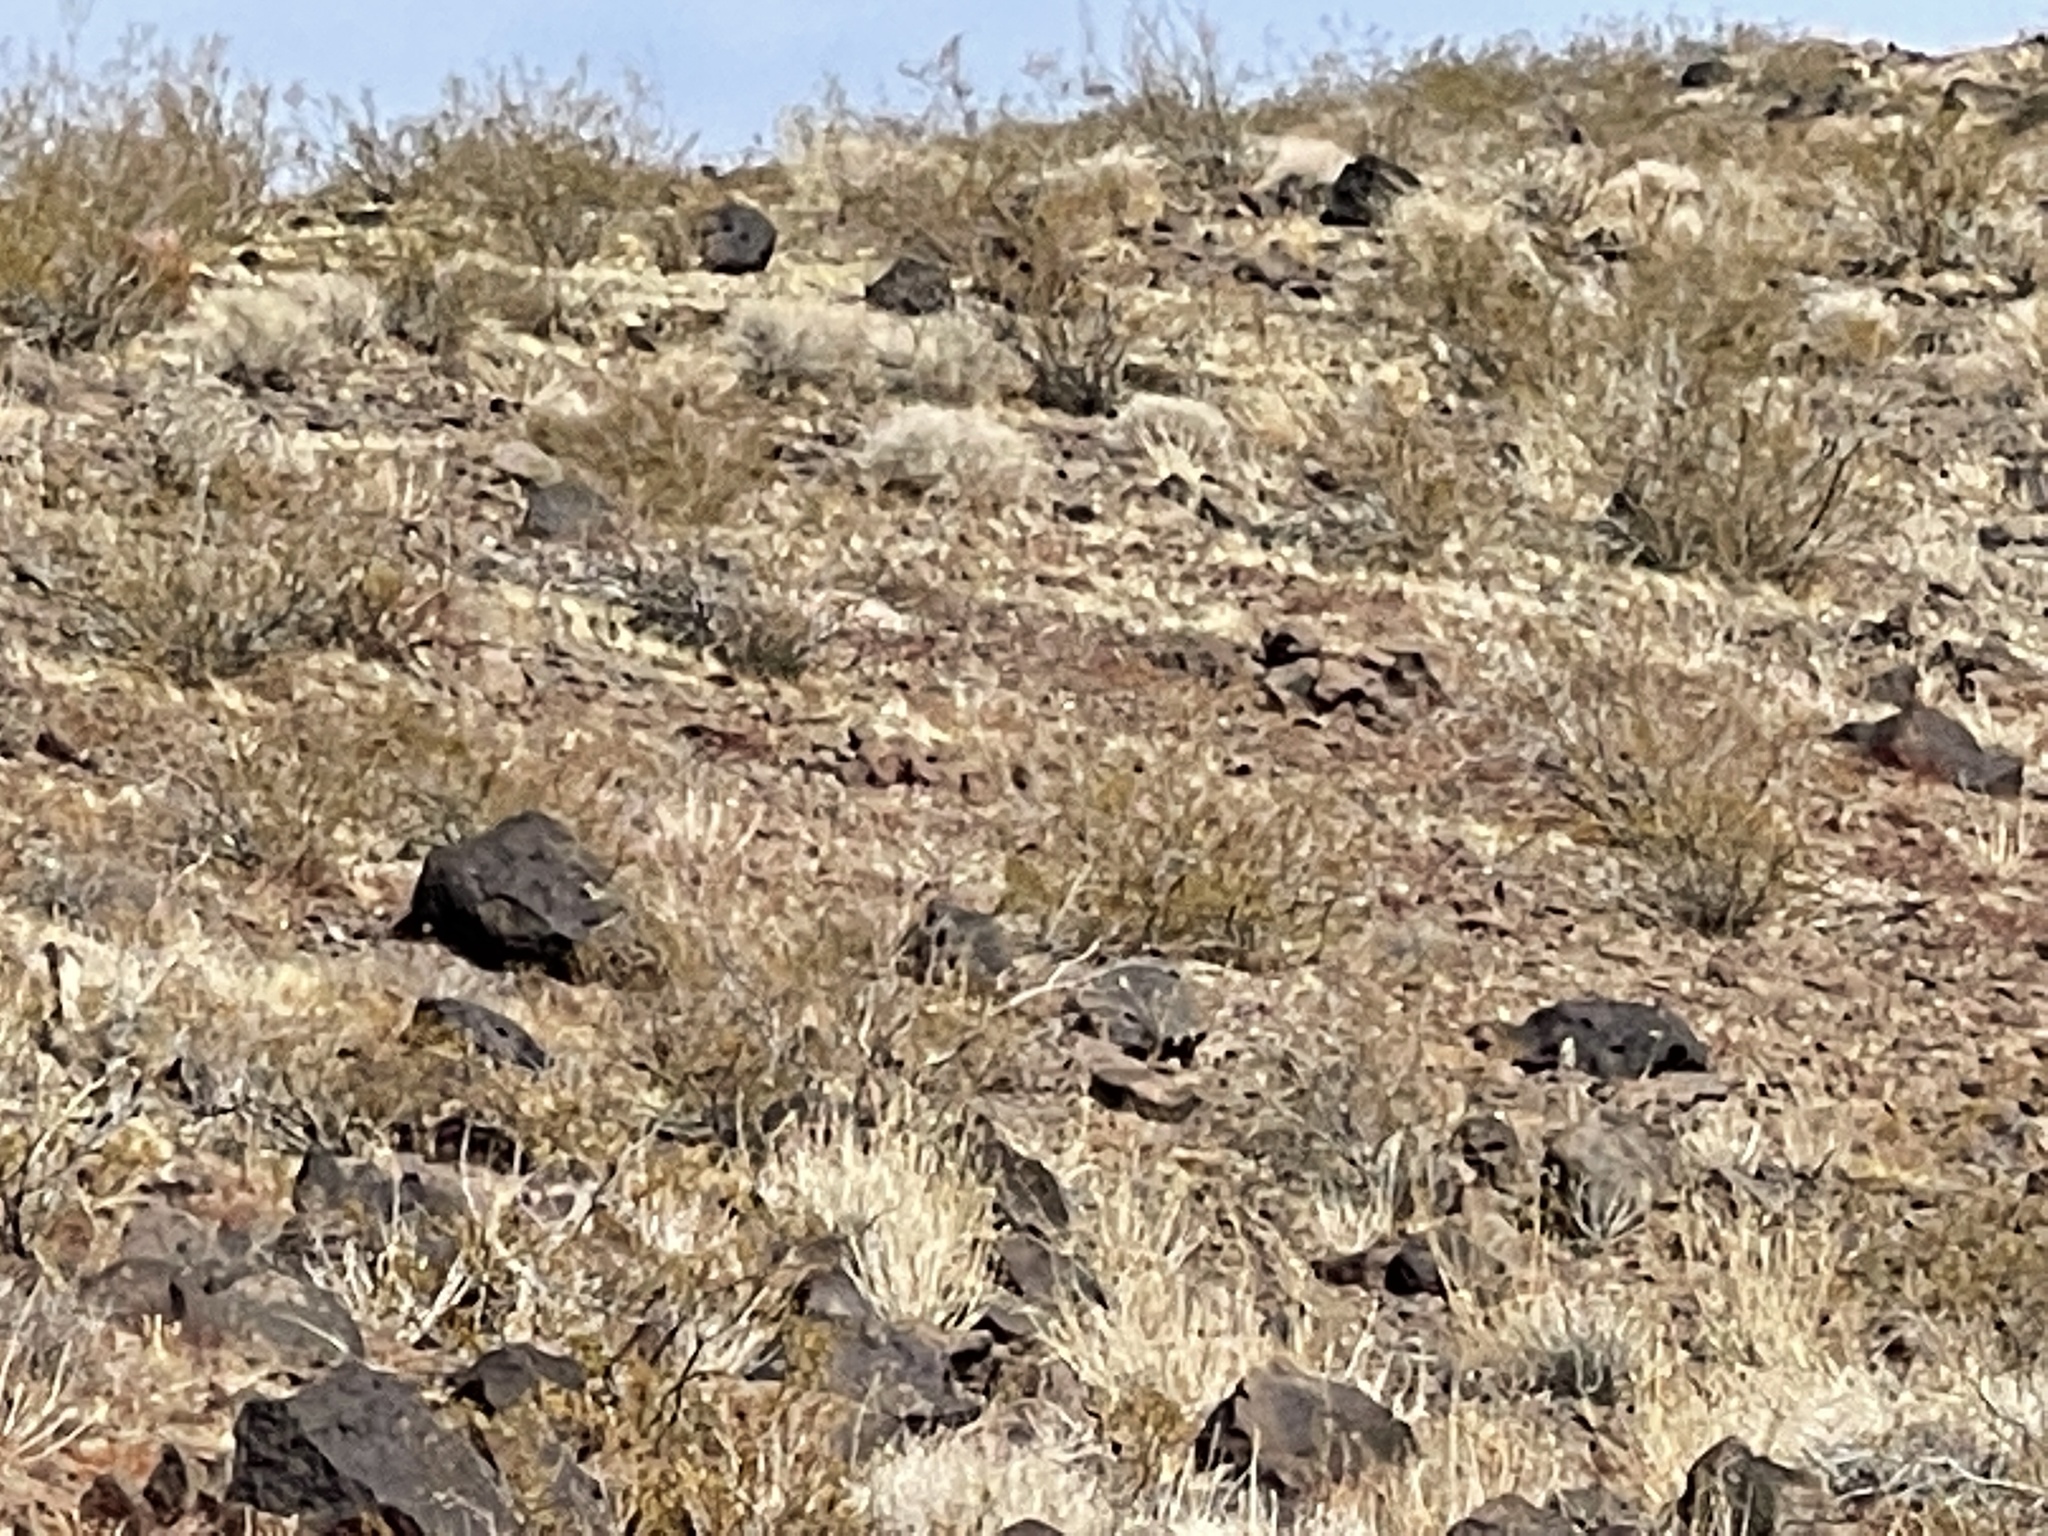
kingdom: Plantae
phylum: Tracheophyta
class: Magnoliopsida
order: Zygophyllales
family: Zygophyllaceae
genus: Larrea
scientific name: Larrea tridentata
